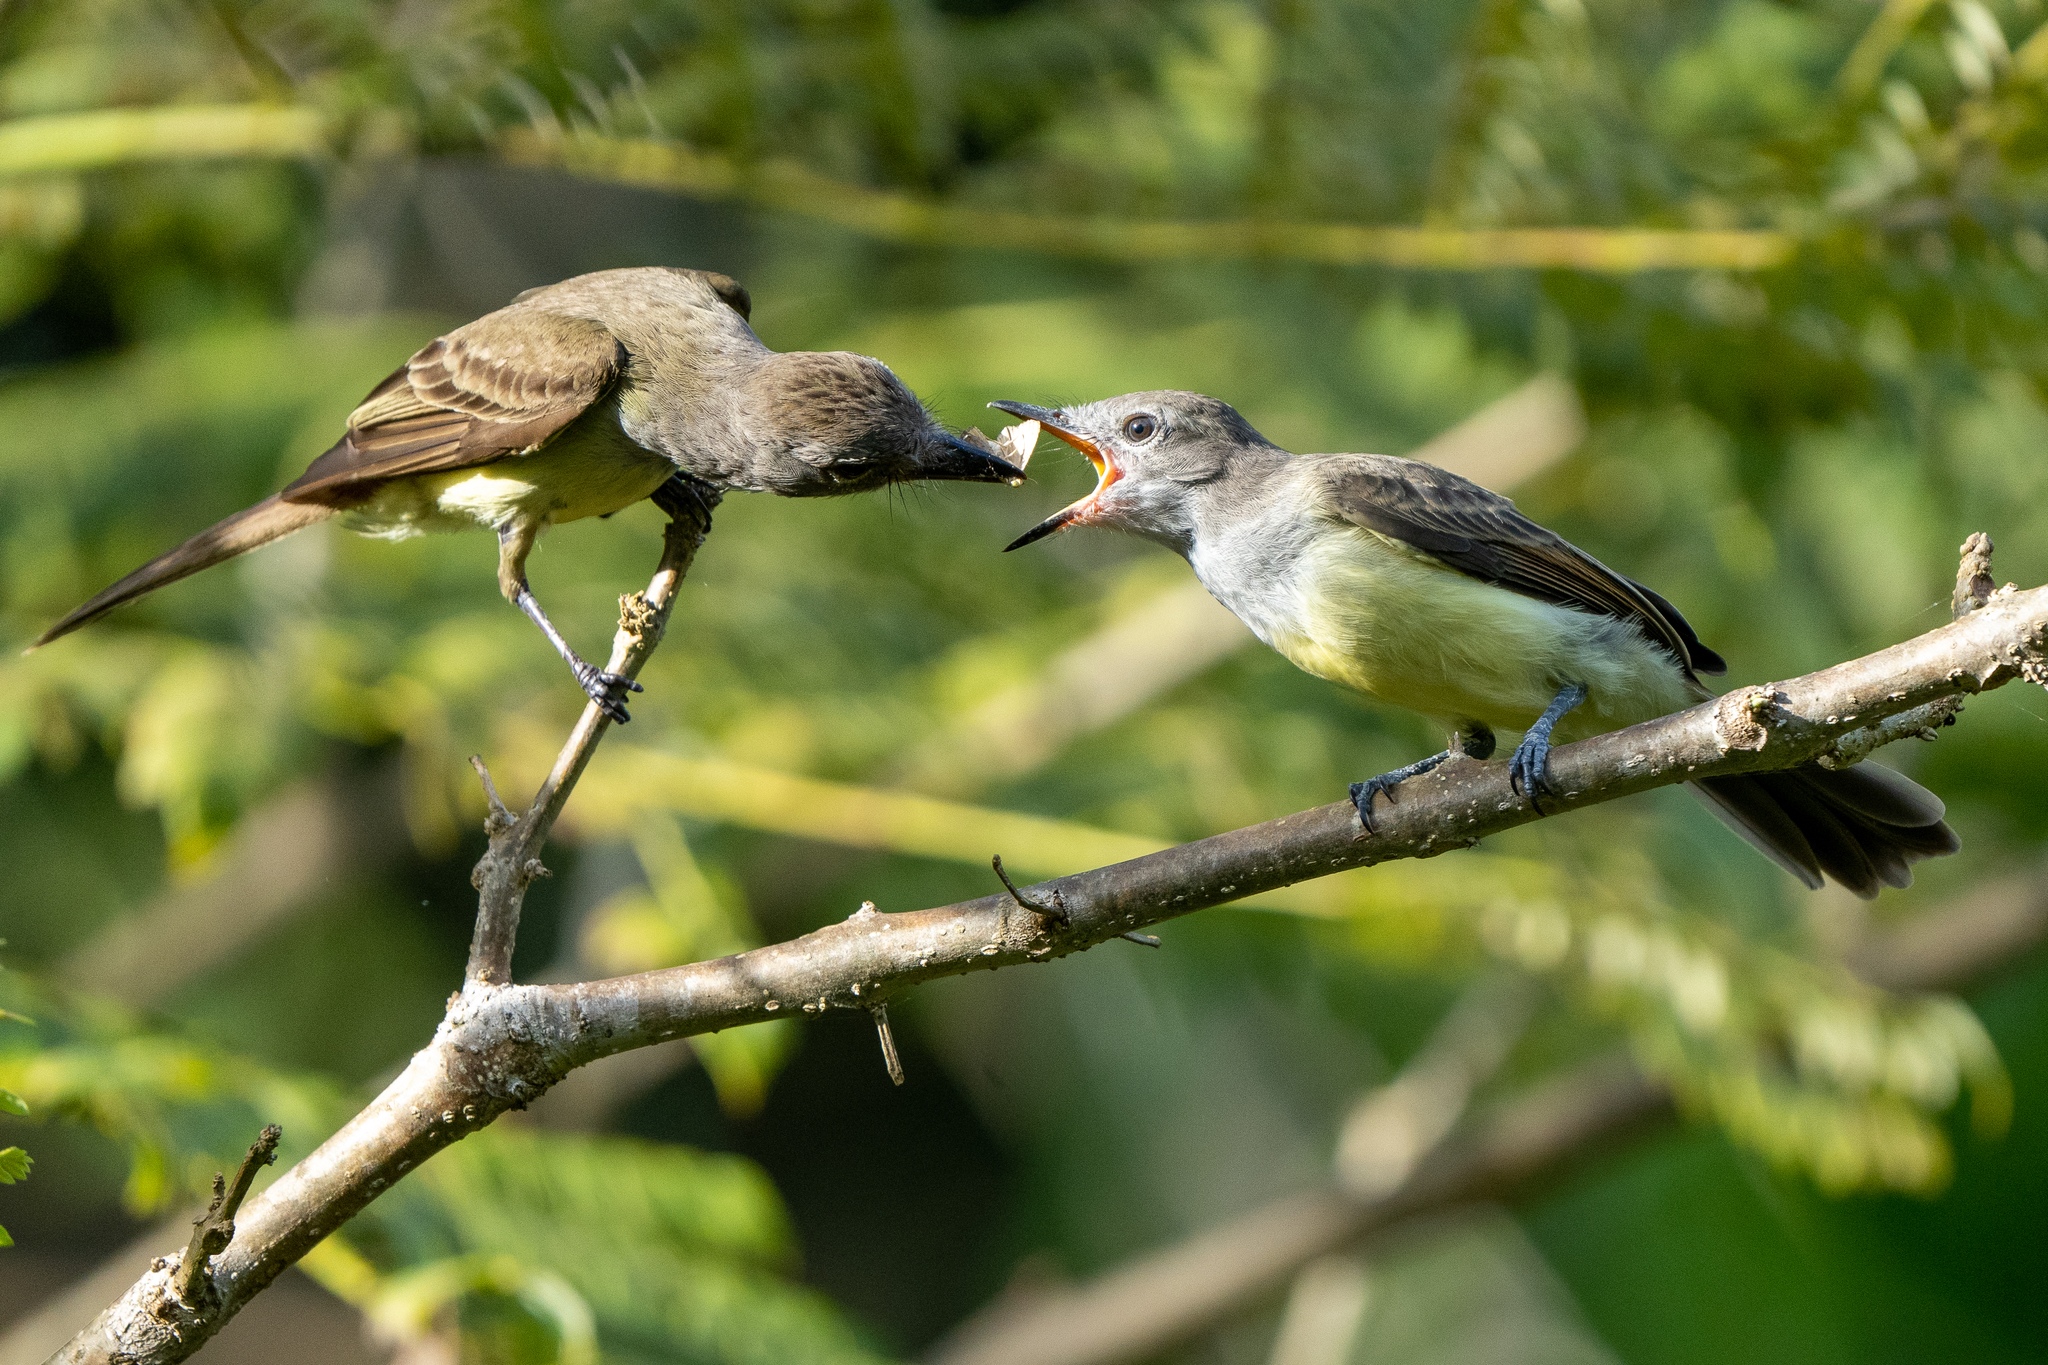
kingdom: Animalia
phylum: Chordata
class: Aves
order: Passeriformes
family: Tyrannidae
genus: Myiarchus
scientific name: Myiarchus panamensis
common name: Panama flycatcher
